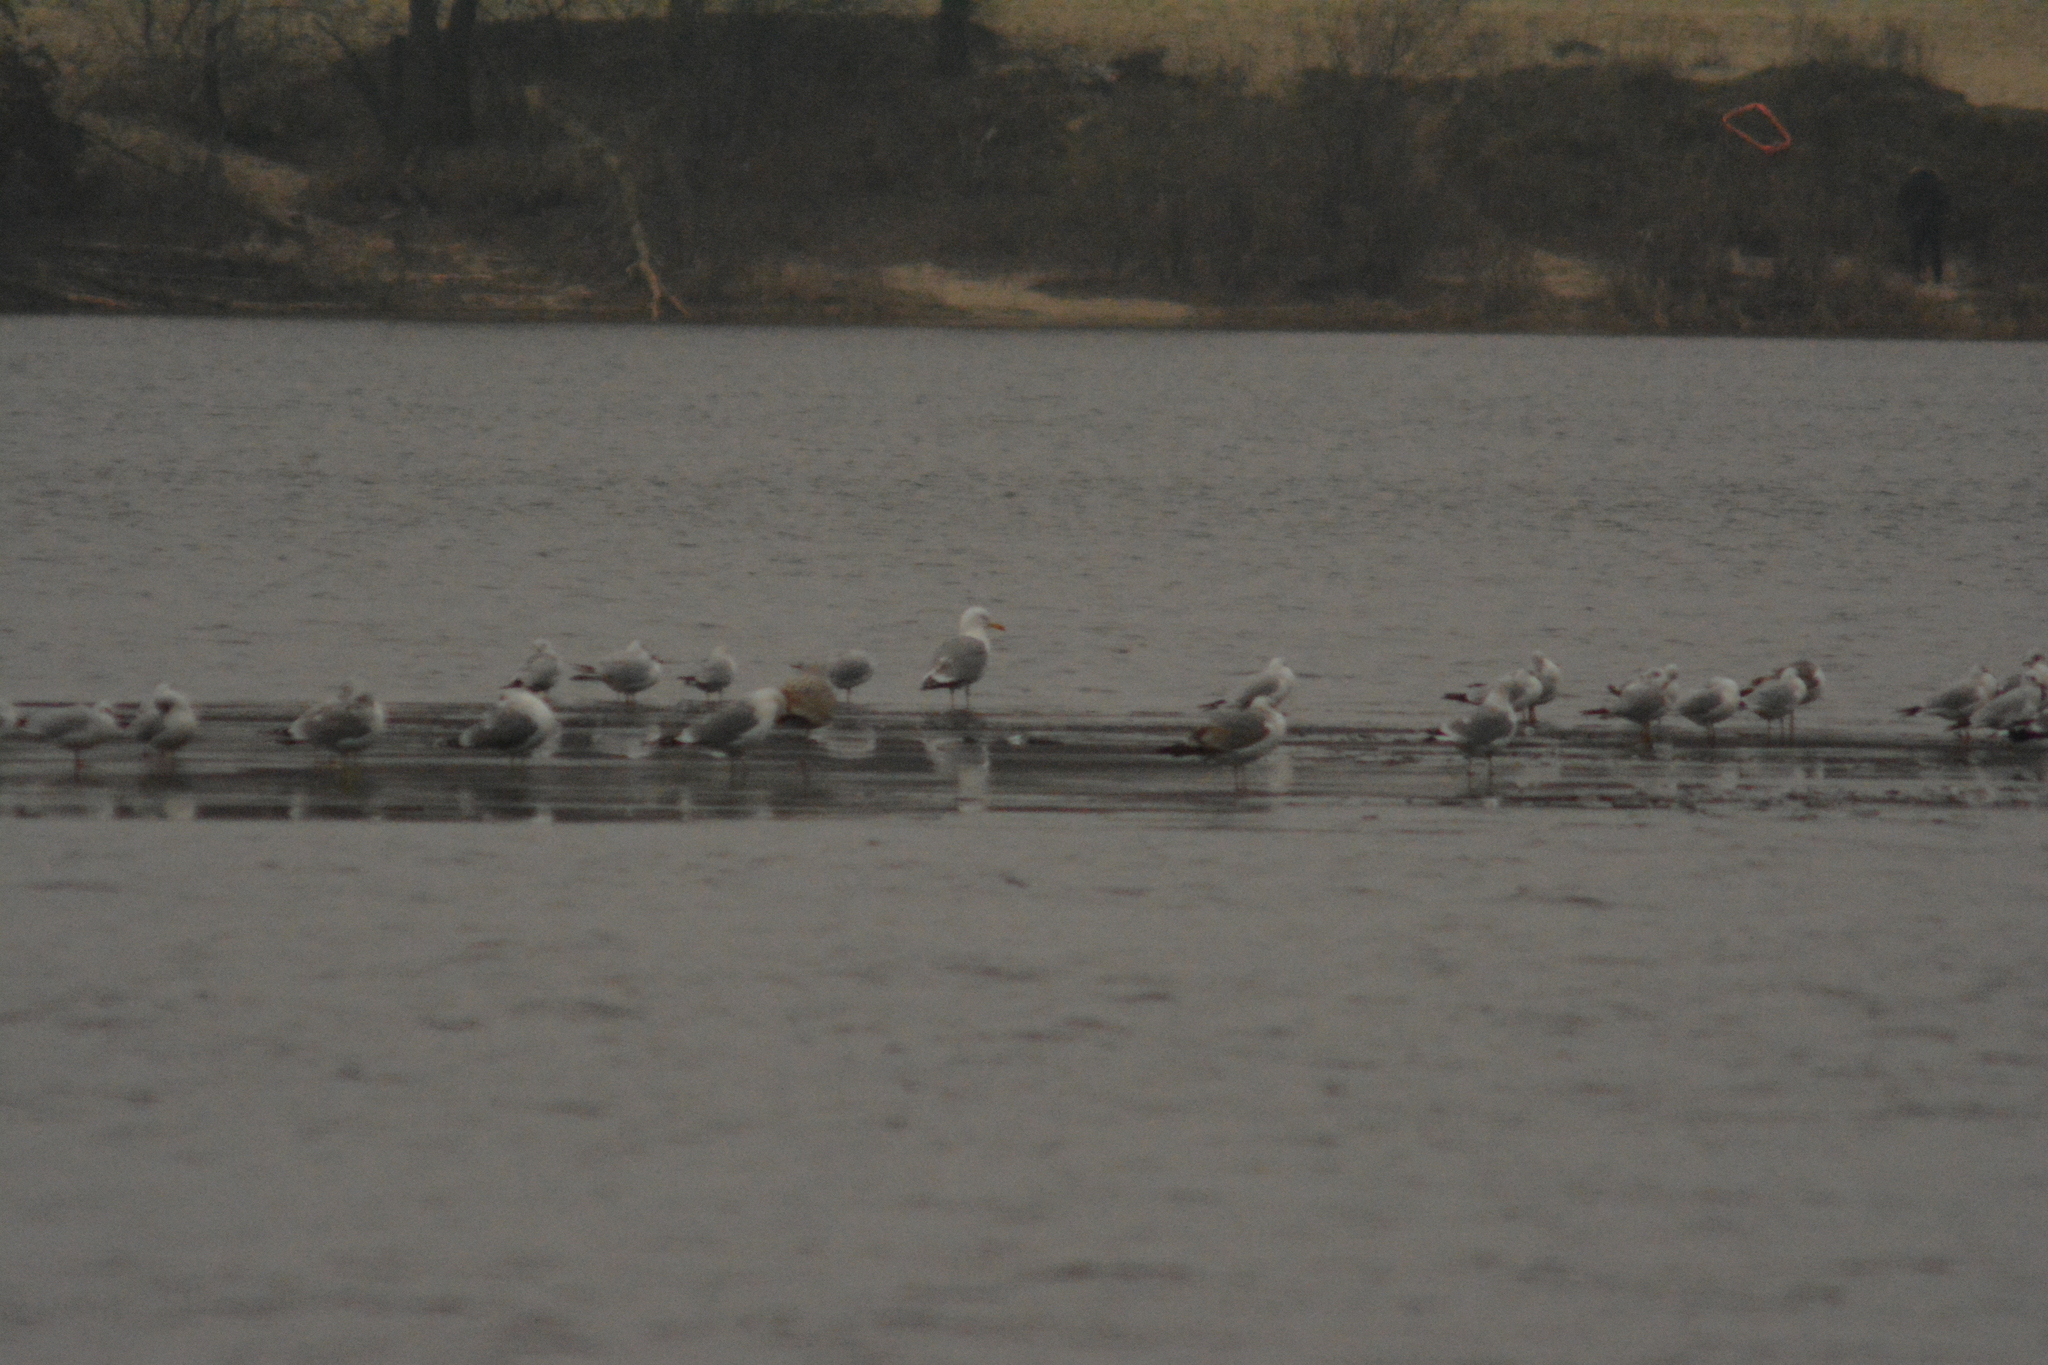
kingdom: Animalia
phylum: Chordata
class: Aves
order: Charadriiformes
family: Laridae
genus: Chroicocephalus
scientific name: Chroicocephalus ridibundus
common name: Black-headed gull
